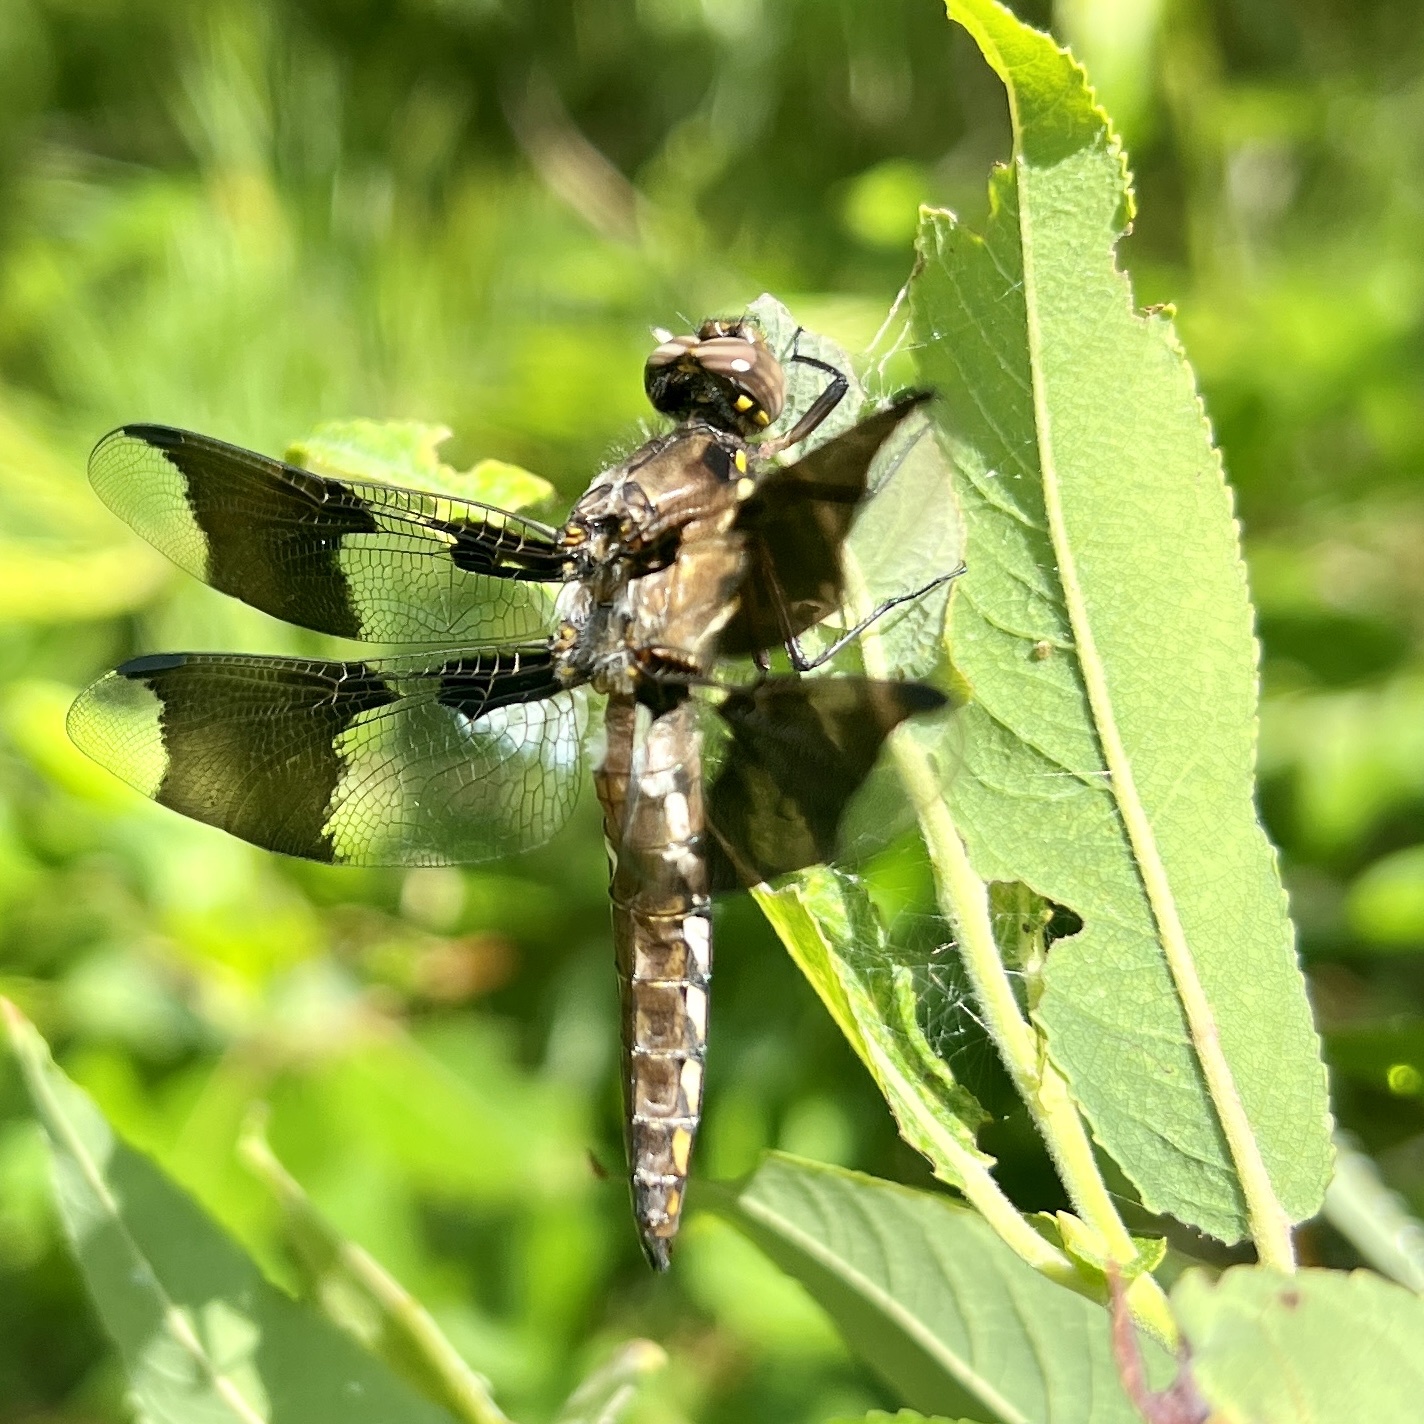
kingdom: Animalia
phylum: Arthropoda
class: Insecta
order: Odonata
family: Libellulidae
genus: Plathemis
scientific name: Plathemis lydia
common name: Common whitetail
